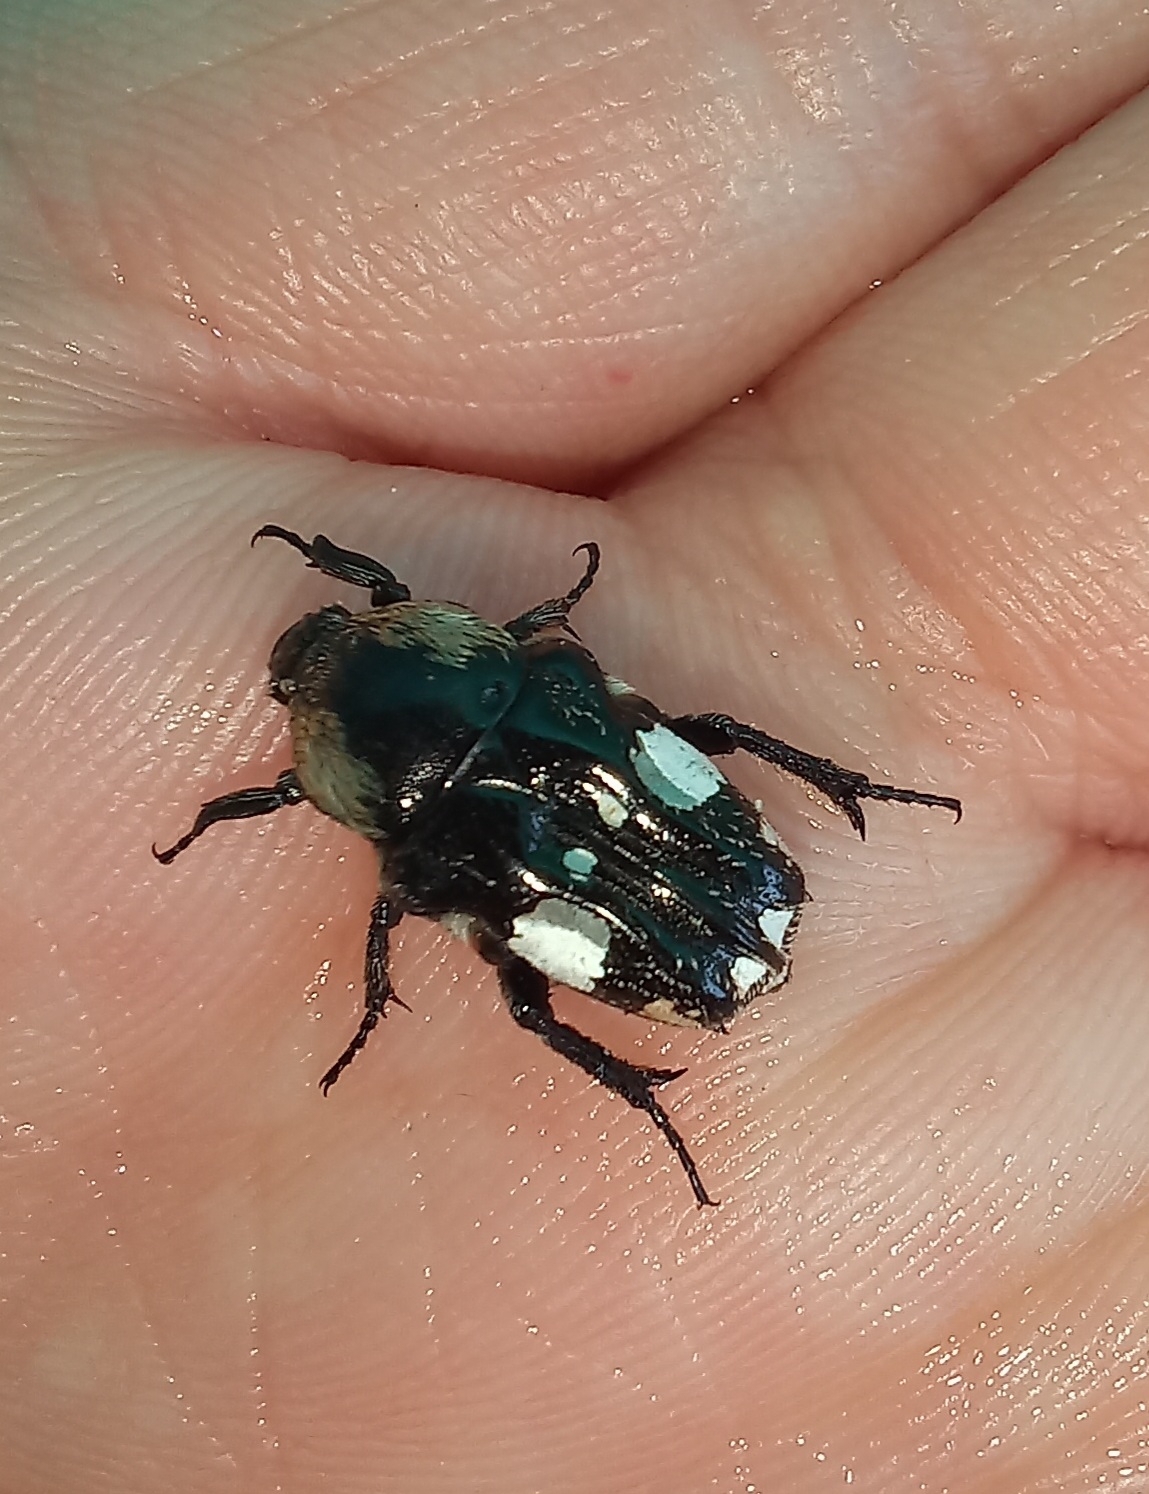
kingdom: Animalia
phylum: Arthropoda
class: Insecta
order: Coleoptera
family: Scarabaeidae
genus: Cymophorus
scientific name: Cymophorus margaritiferus
